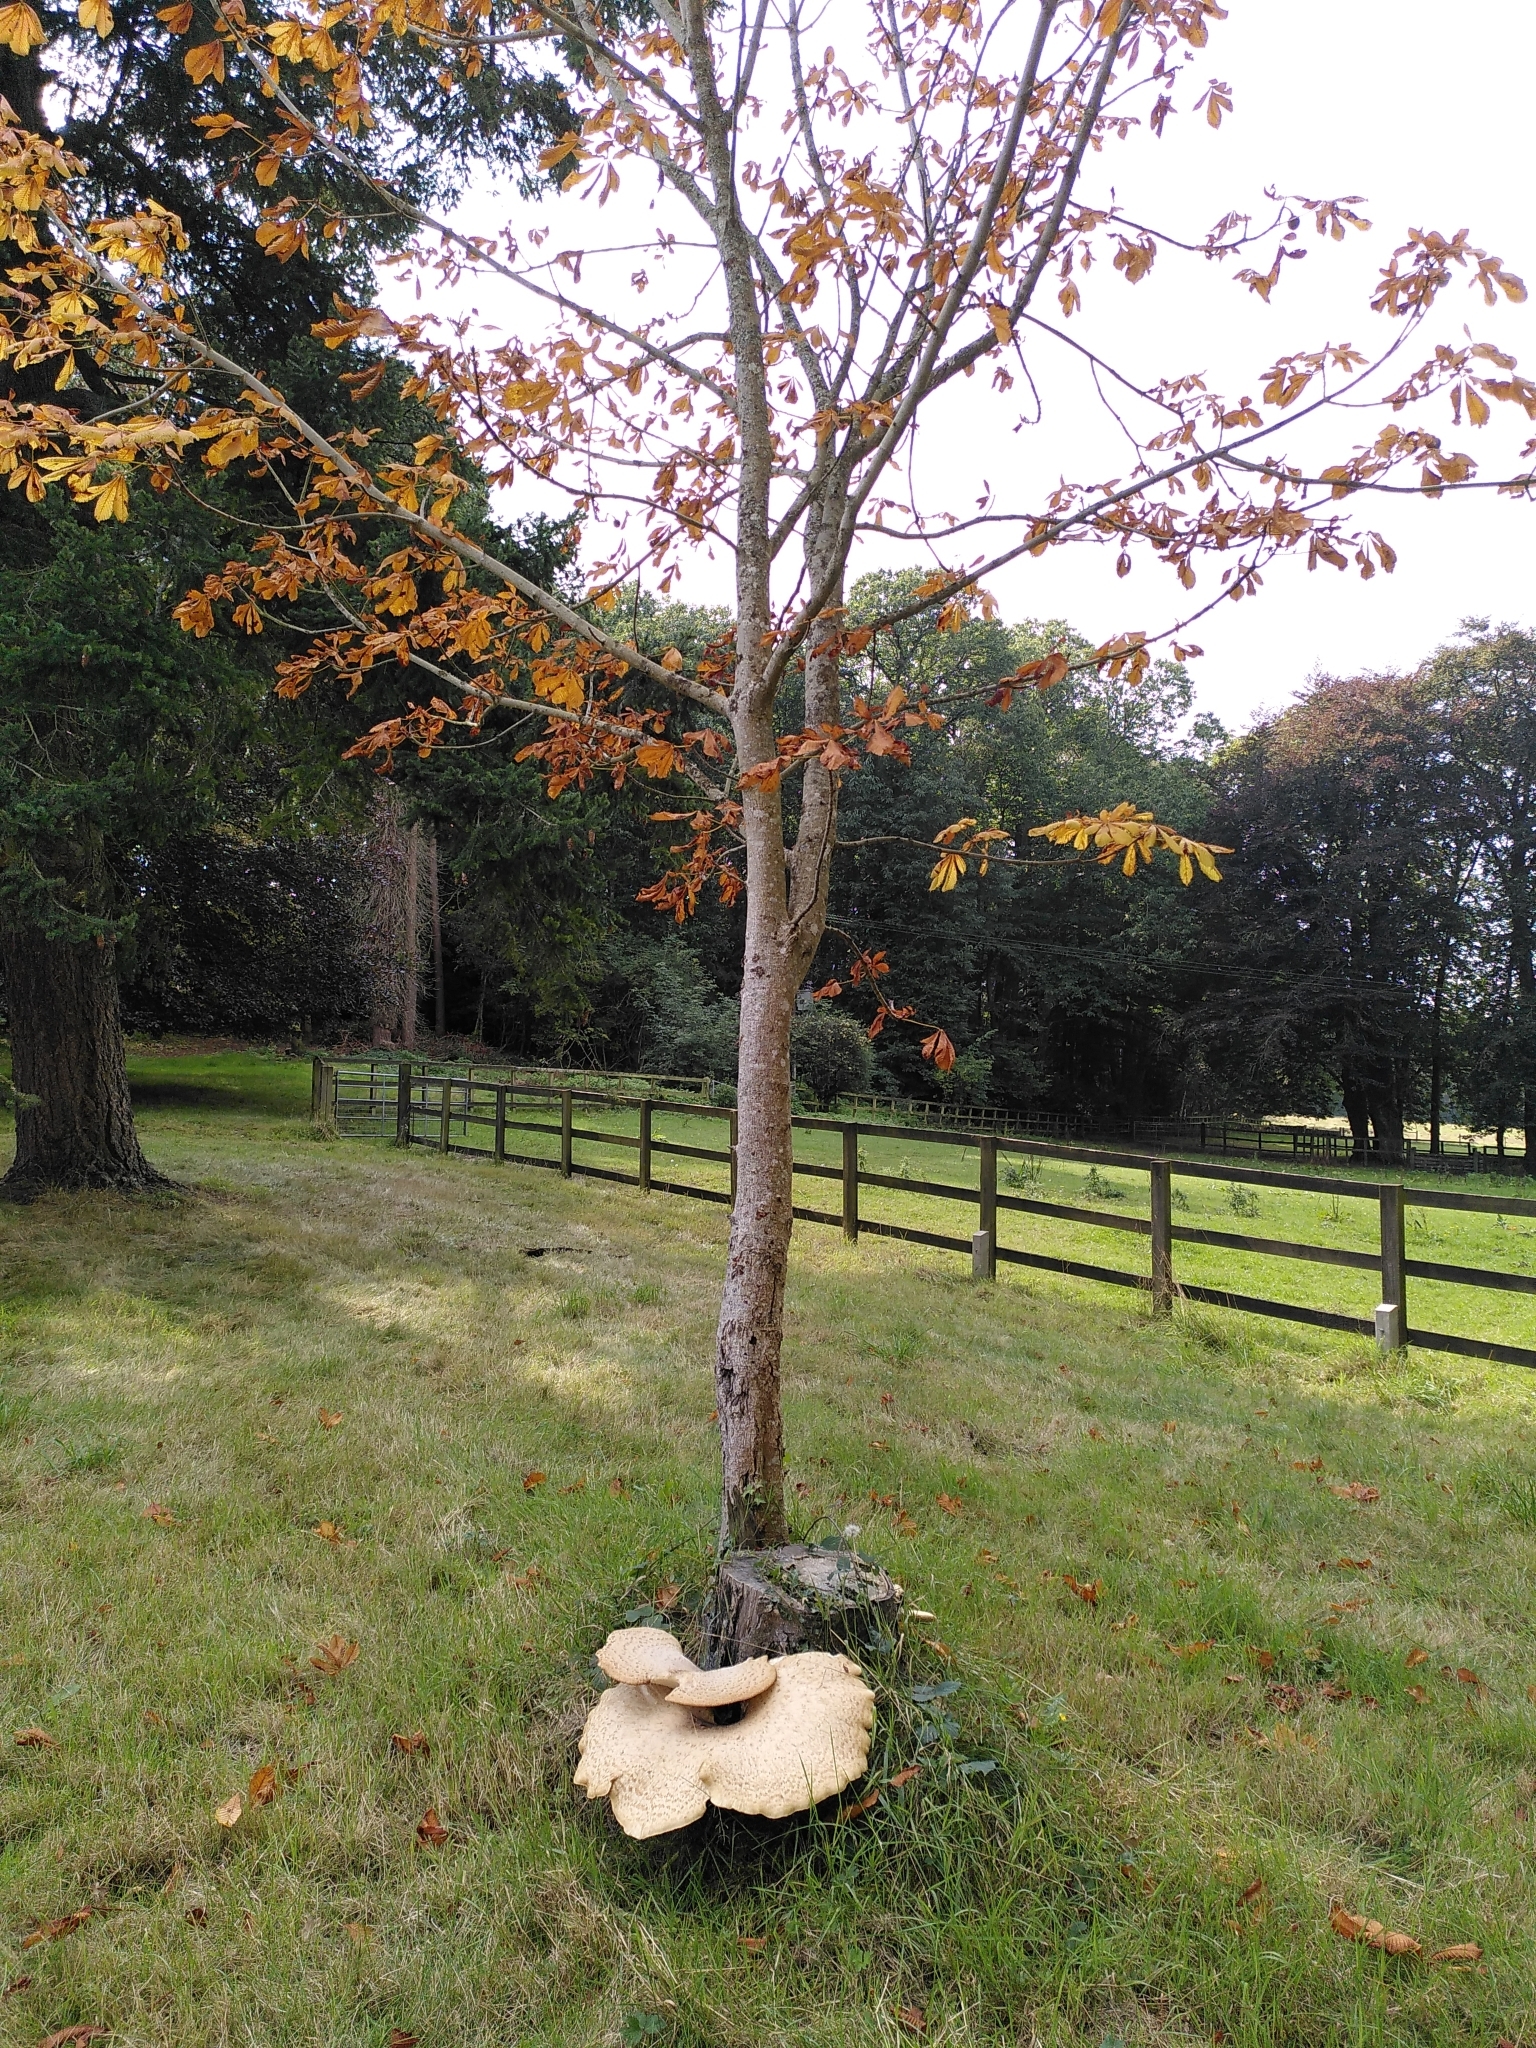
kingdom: Fungi
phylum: Basidiomycota
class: Agaricomycetes
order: Polyporales
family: Polyporaceae
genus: Cerioporus
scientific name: Cerioporus squamosus
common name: Dryad's saddle
